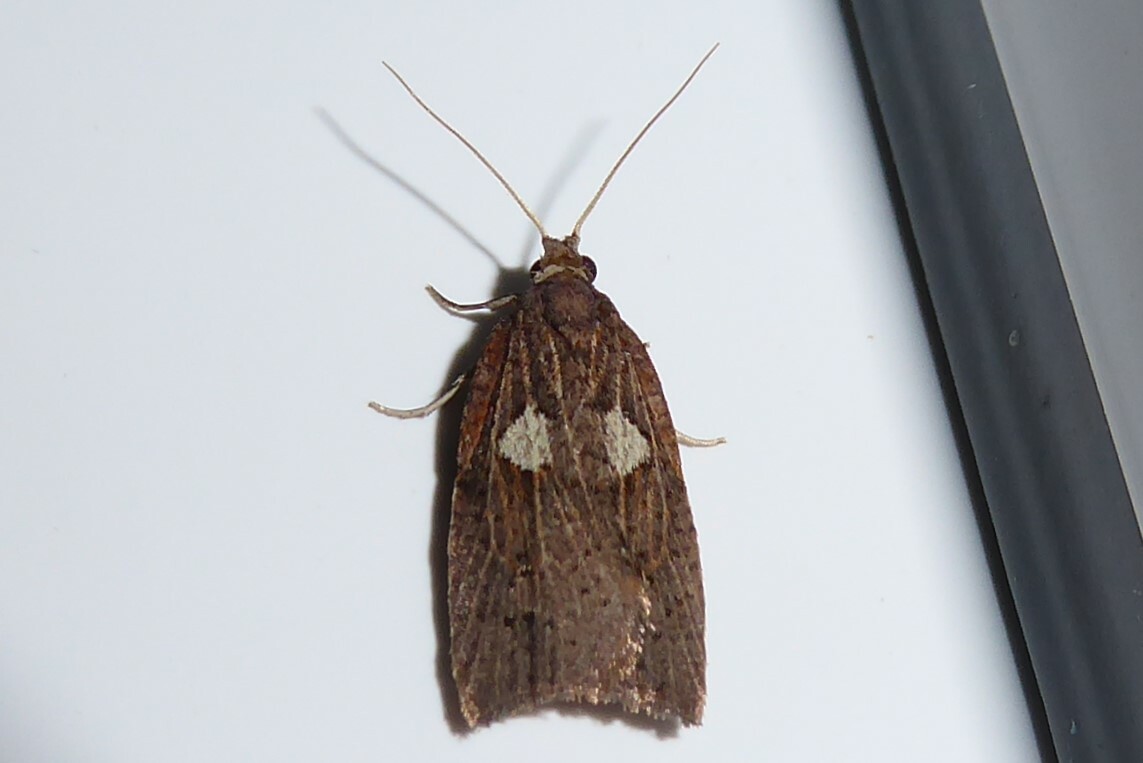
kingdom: Animalia
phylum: Arthropoda
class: Insecta
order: Lepidoptera
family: Tortricidae
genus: Planotortrix
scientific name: Planotortrix notophaea
